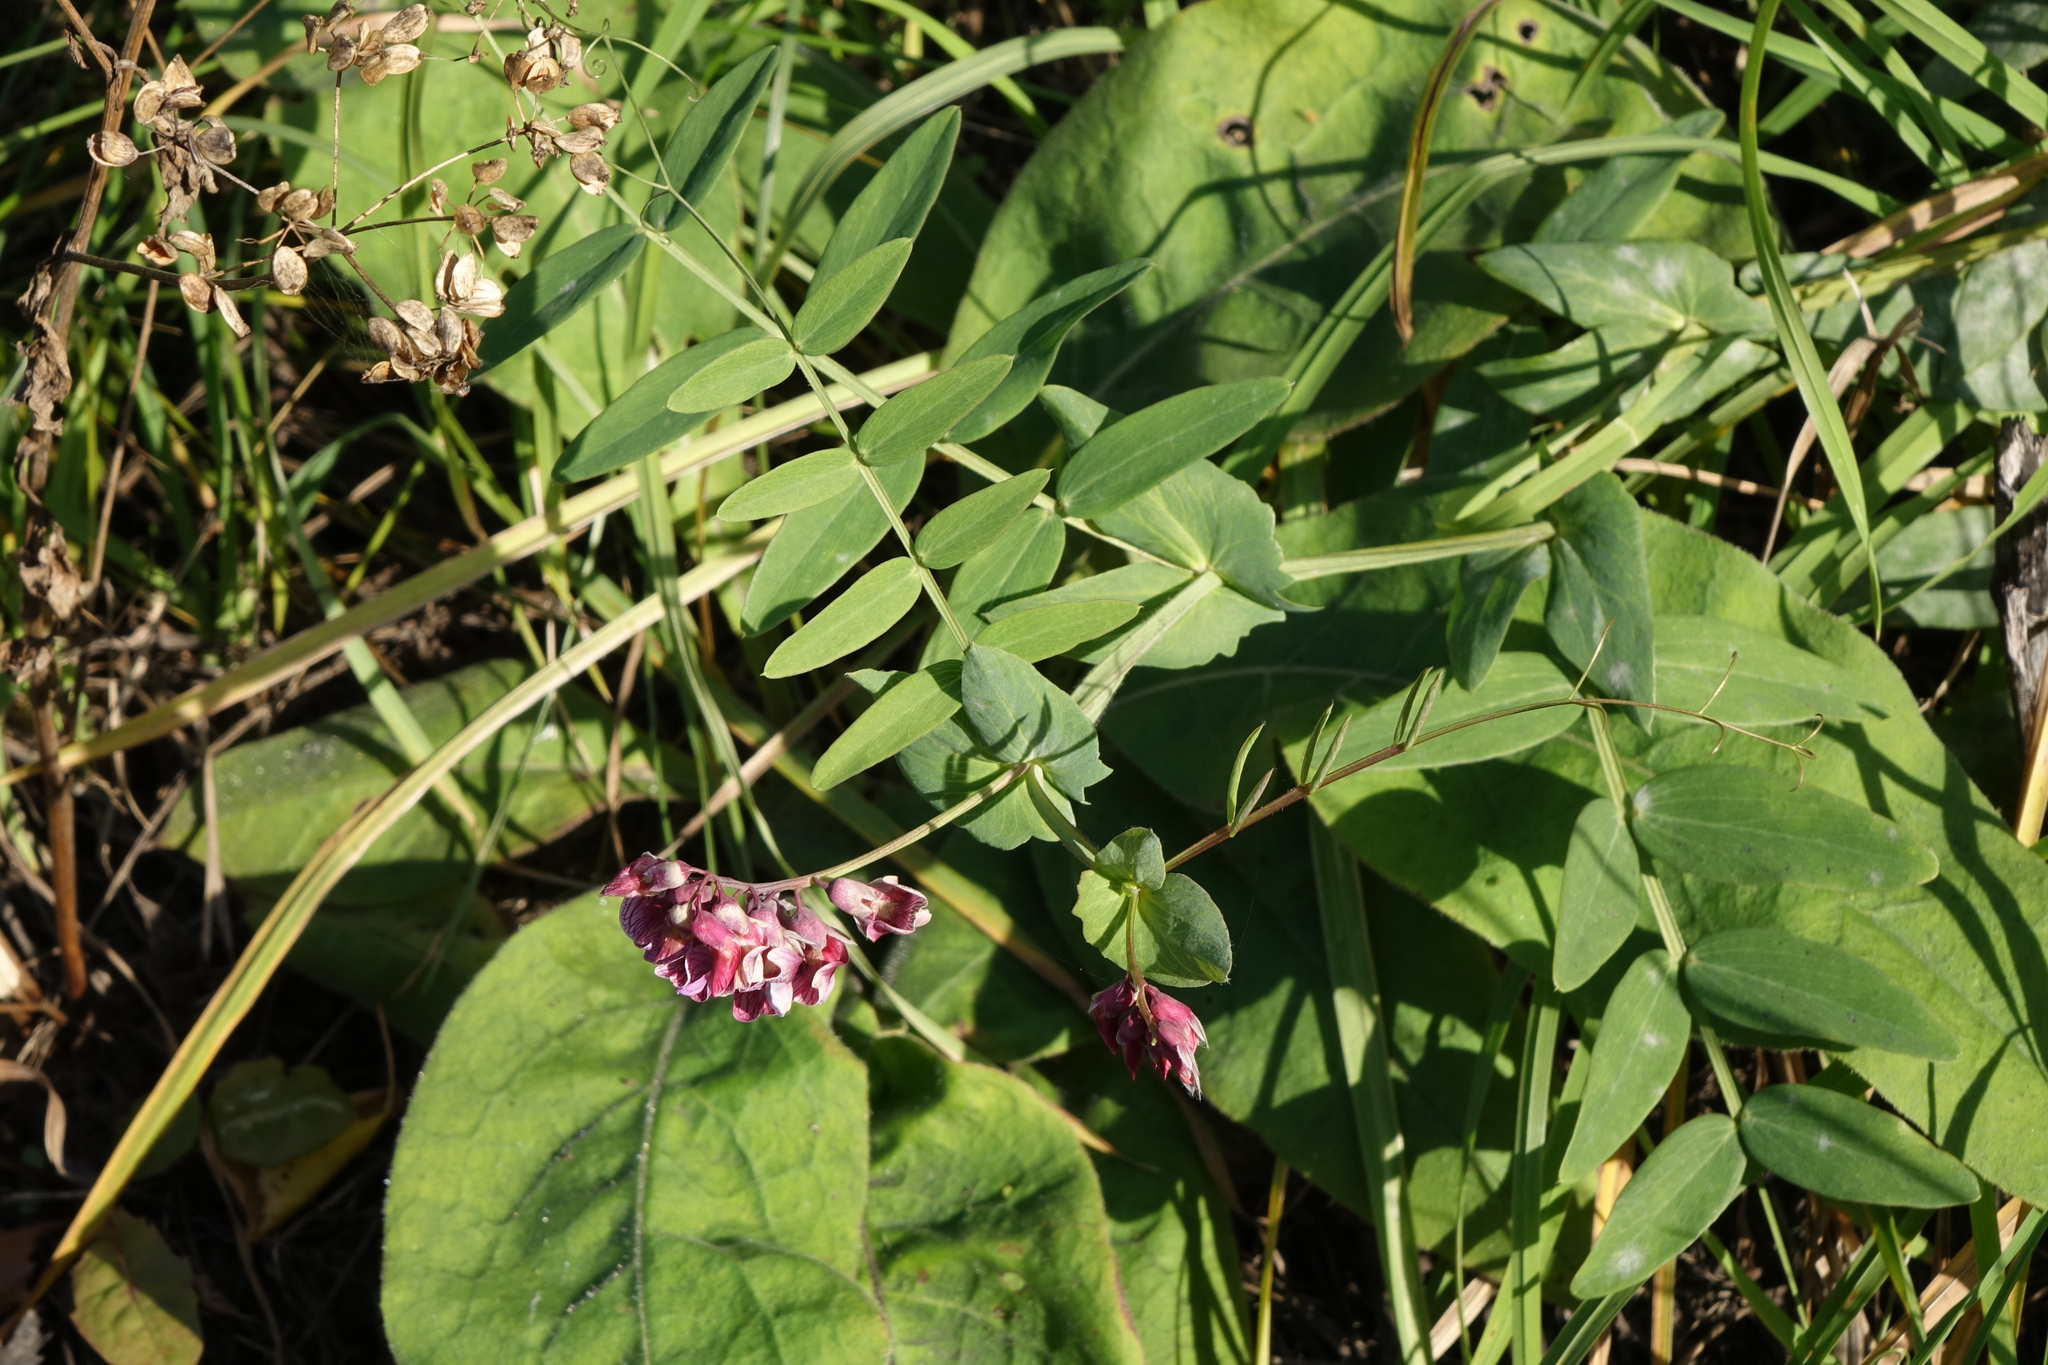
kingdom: Plantae
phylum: Tracheophyta
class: Magnoliopsida
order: Fabales
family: Fabaceae
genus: Lathyrus
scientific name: Lathyrus pisiformis
